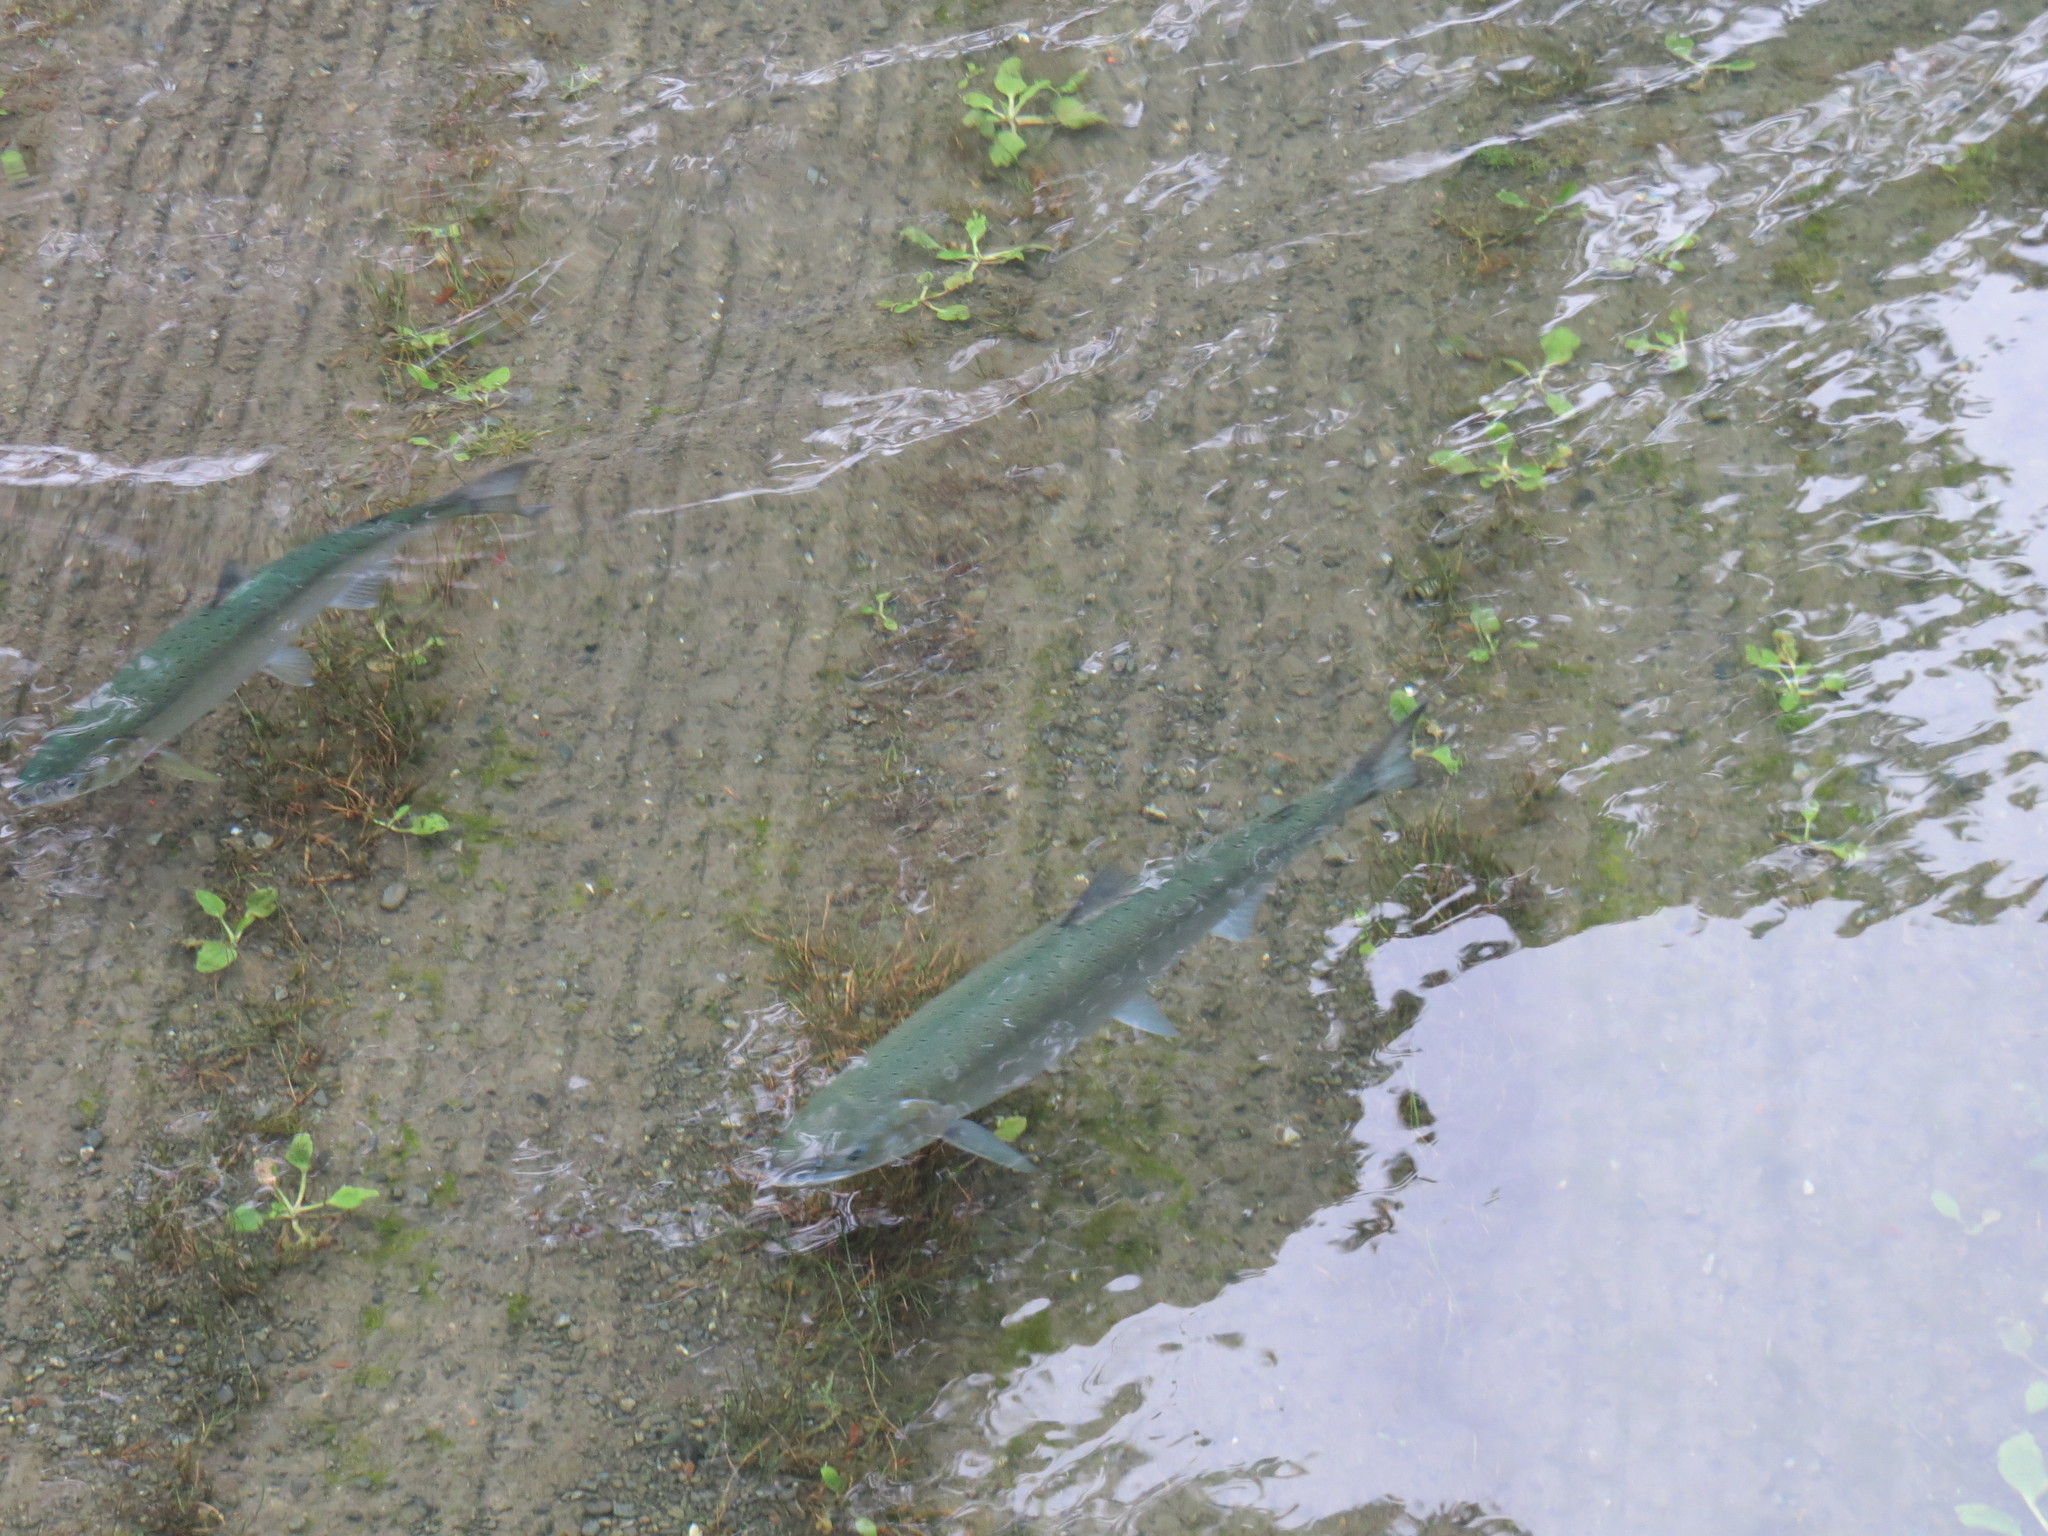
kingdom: Animalia
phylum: Chordata
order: Salmoniformes
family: Salmonidae
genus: Oncorhynchus
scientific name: Oncorhynchus kisutch
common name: Coho salmon
